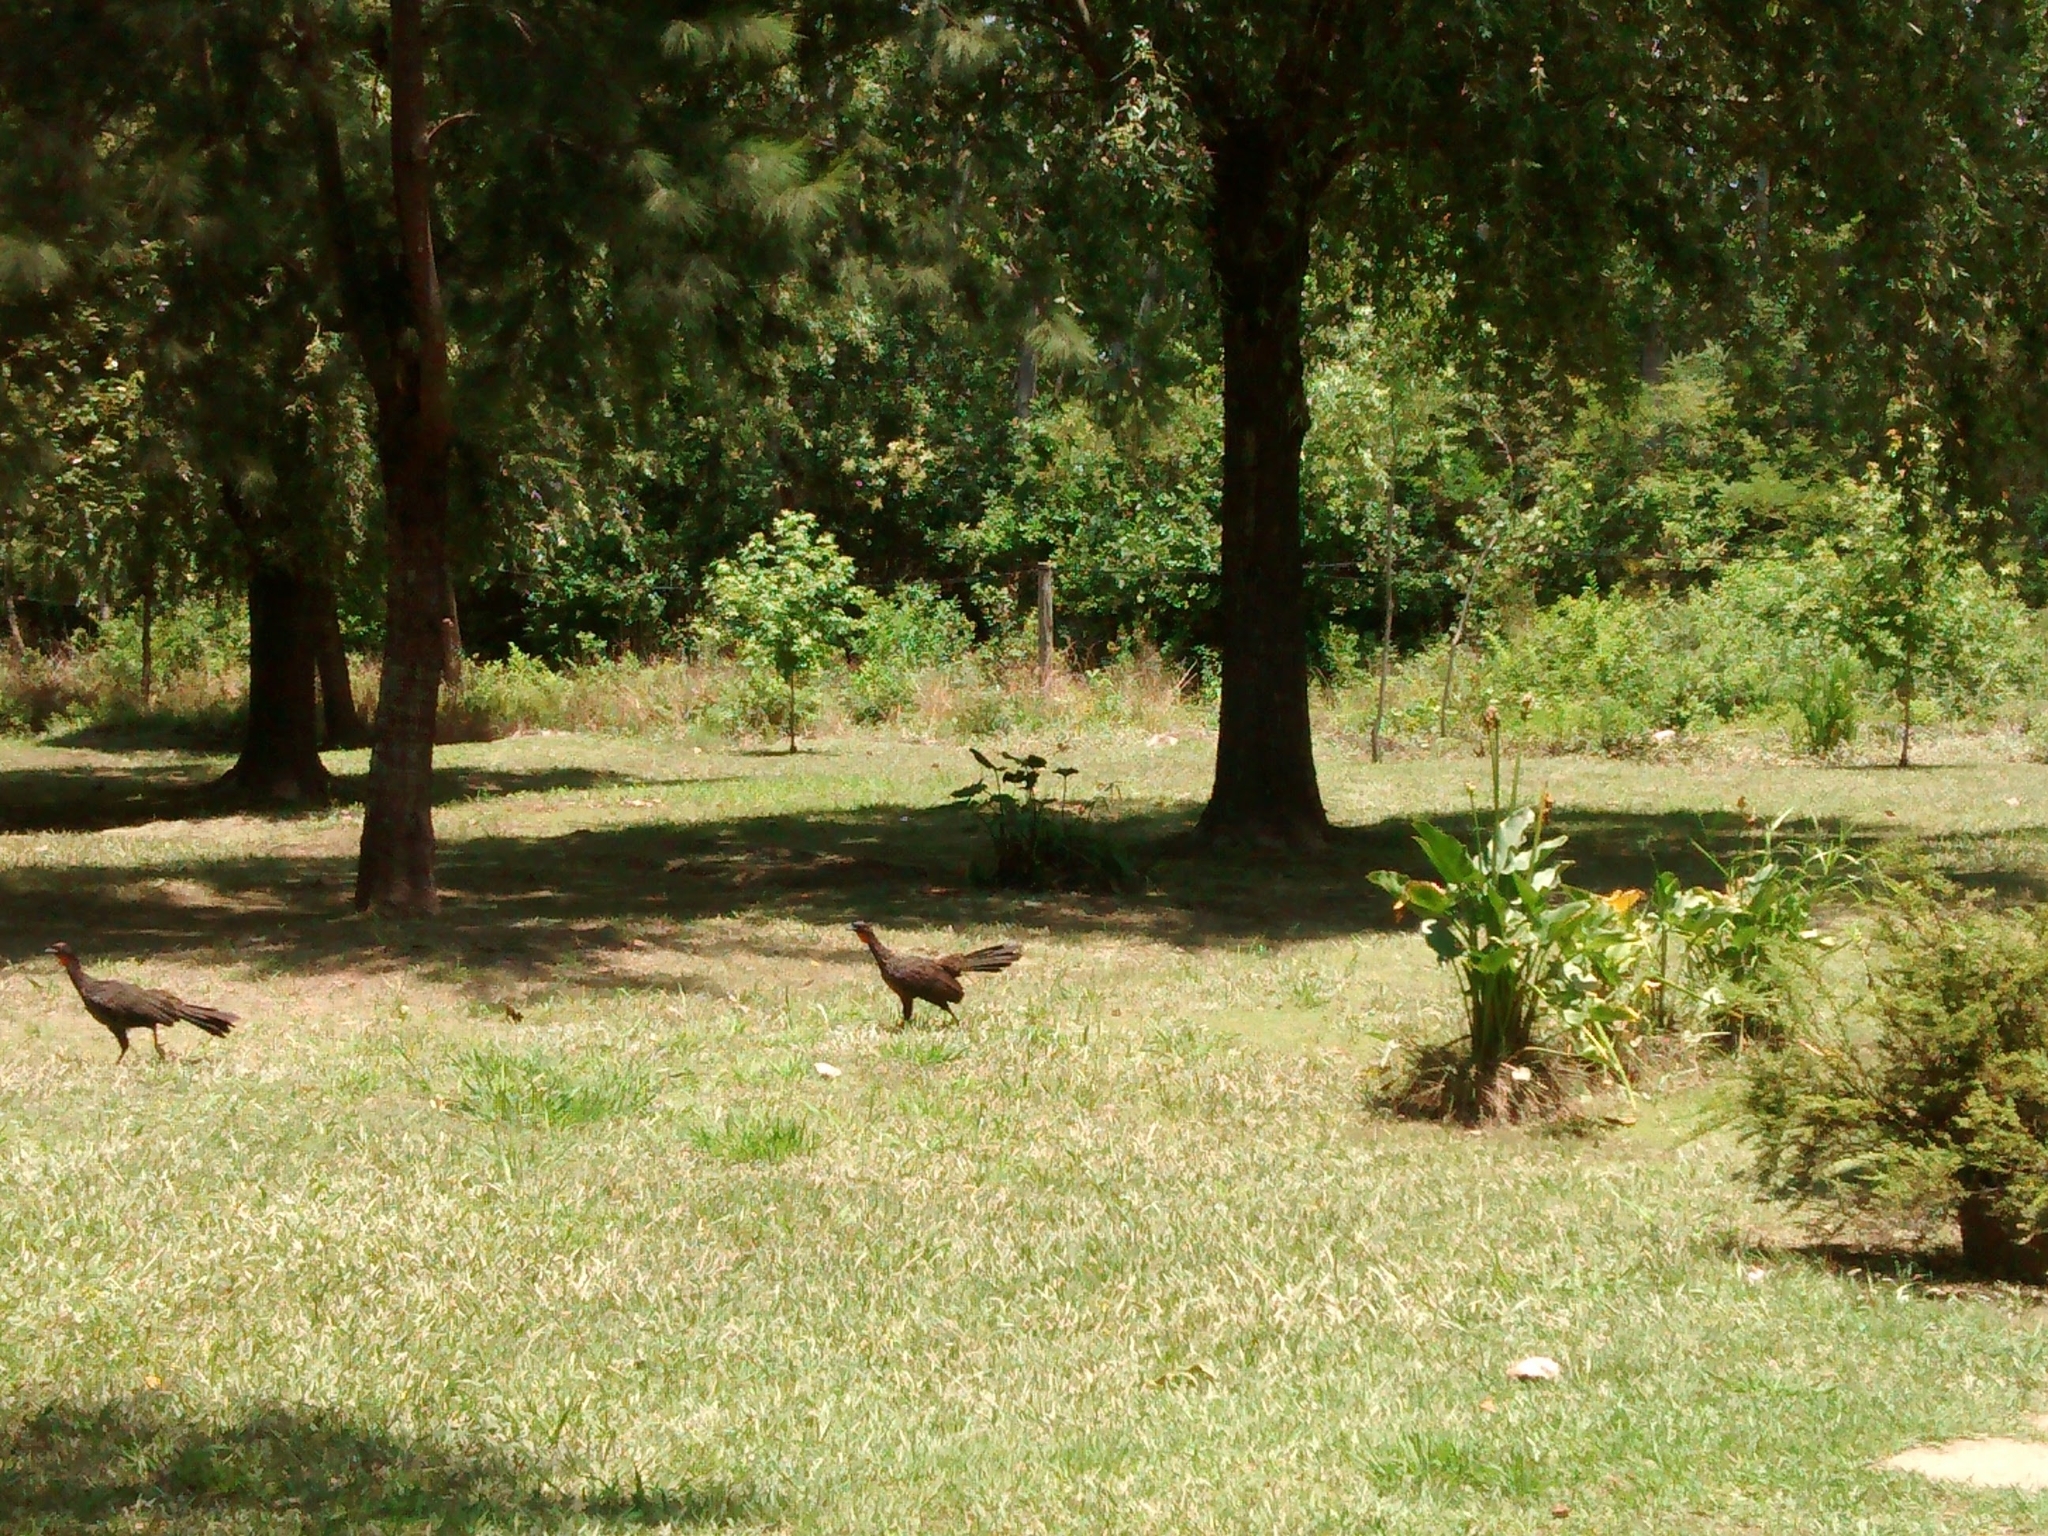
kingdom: Animalia
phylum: Chordata
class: Aves
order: Galliformes
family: Cracidae
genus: Penelope
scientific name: Penelope obscura
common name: Dusky-legged guan
